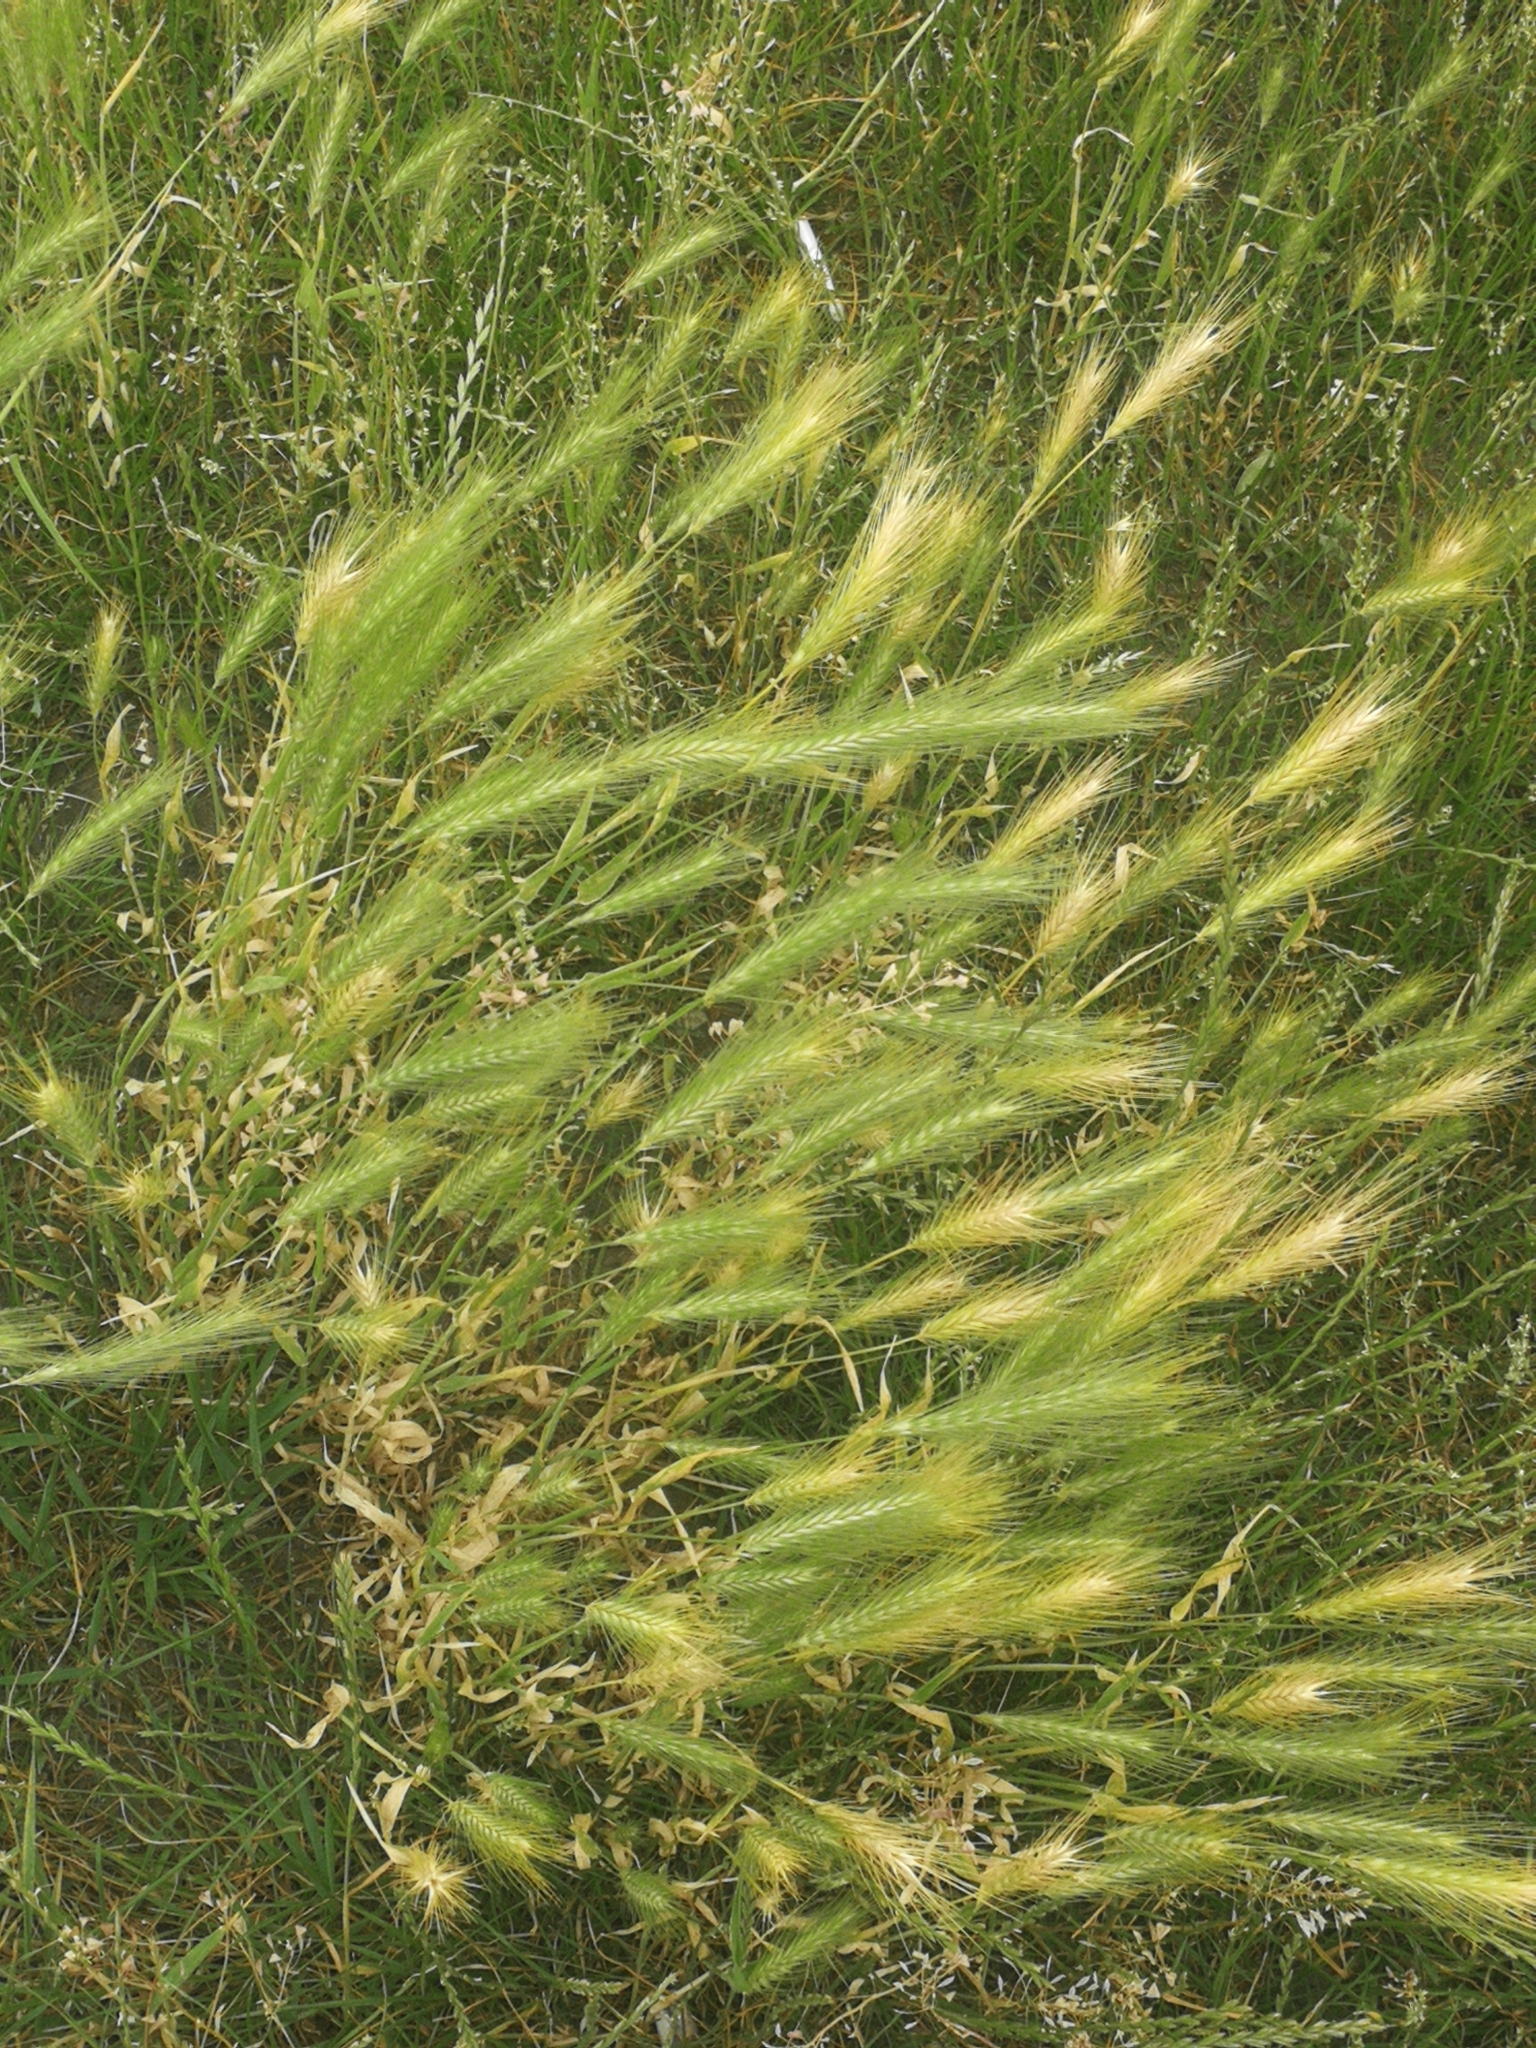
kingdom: Plantae
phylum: Tracheophyta
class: Liliopsida
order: Poales
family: Poaceae
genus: Hordeum
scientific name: Hordeum murinum
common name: Wall barley
